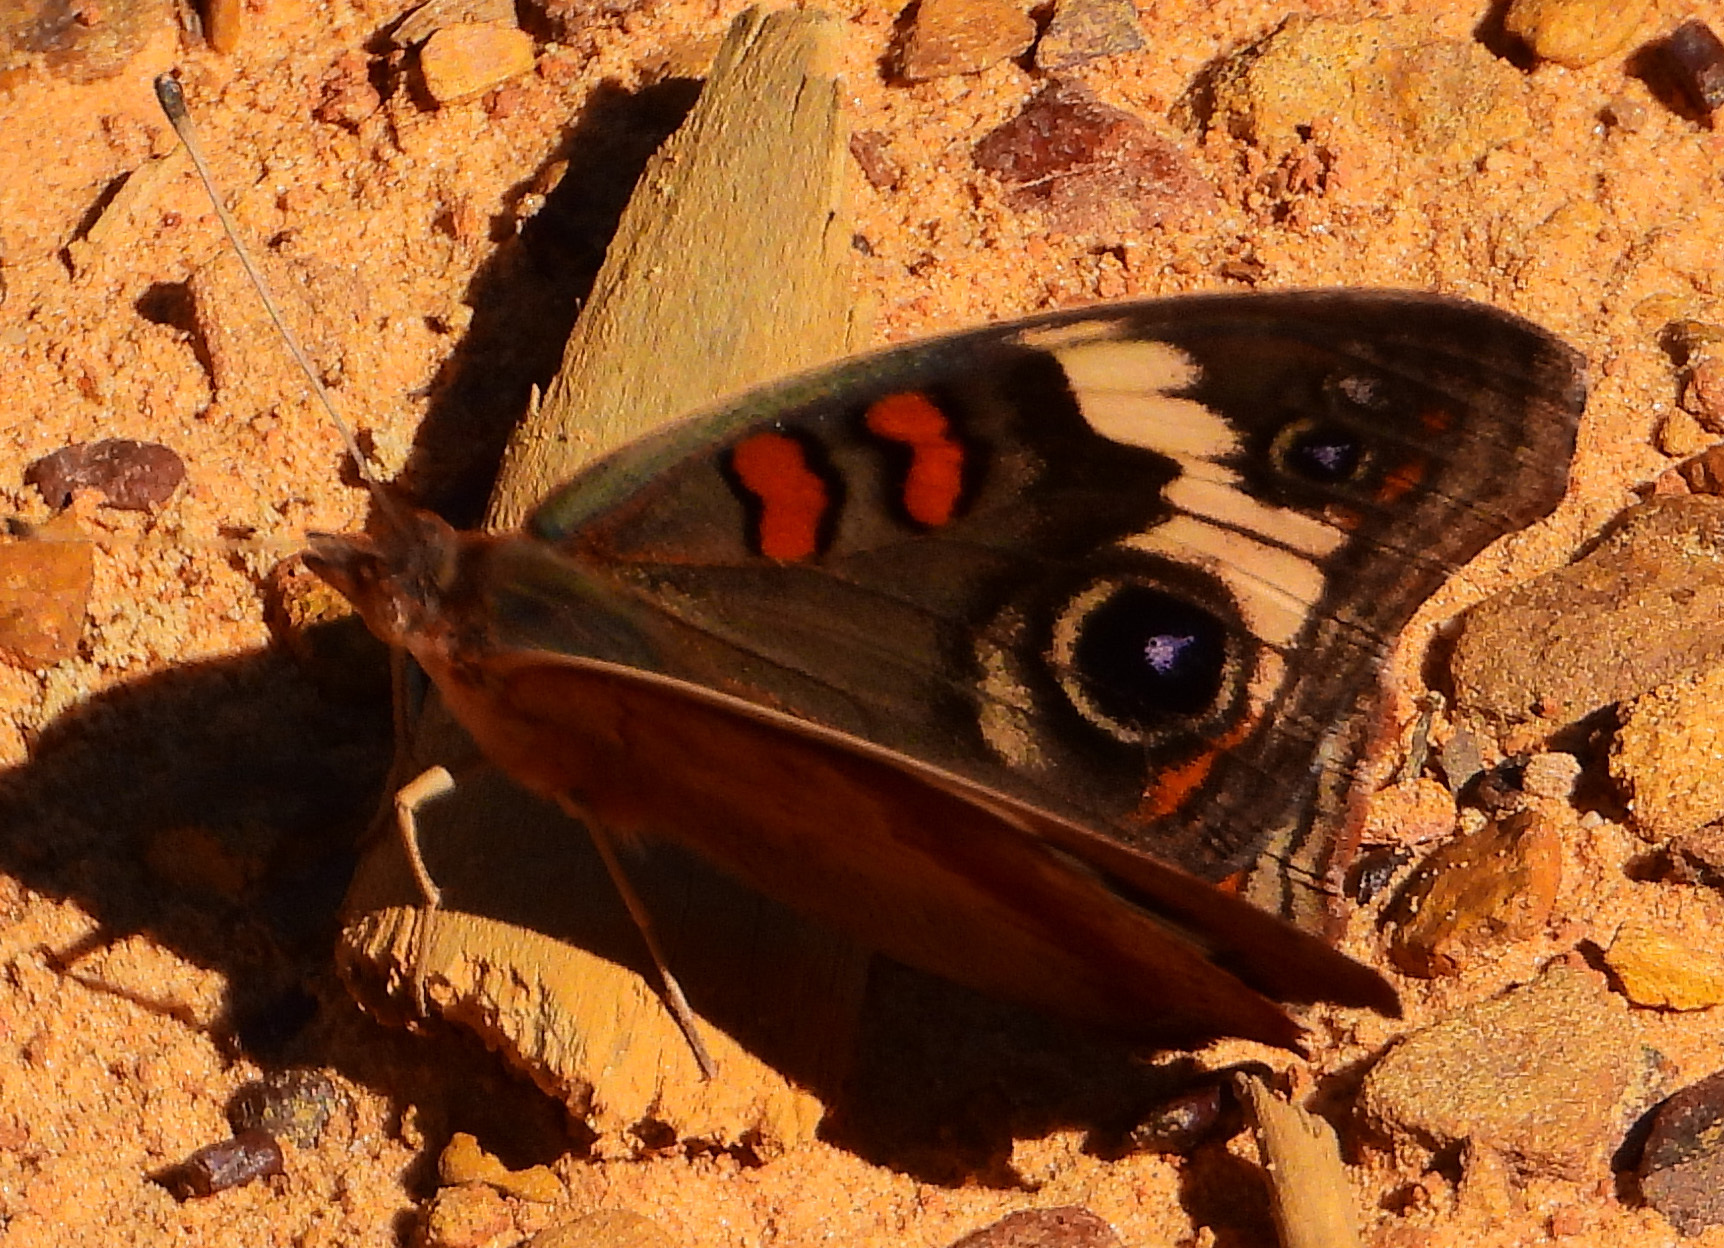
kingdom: Animalia
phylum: Arthropoda
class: Insecta
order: Lepidoptera
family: Nymphalidae
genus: Junonia
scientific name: Junonia coenia
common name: Common buckeye
